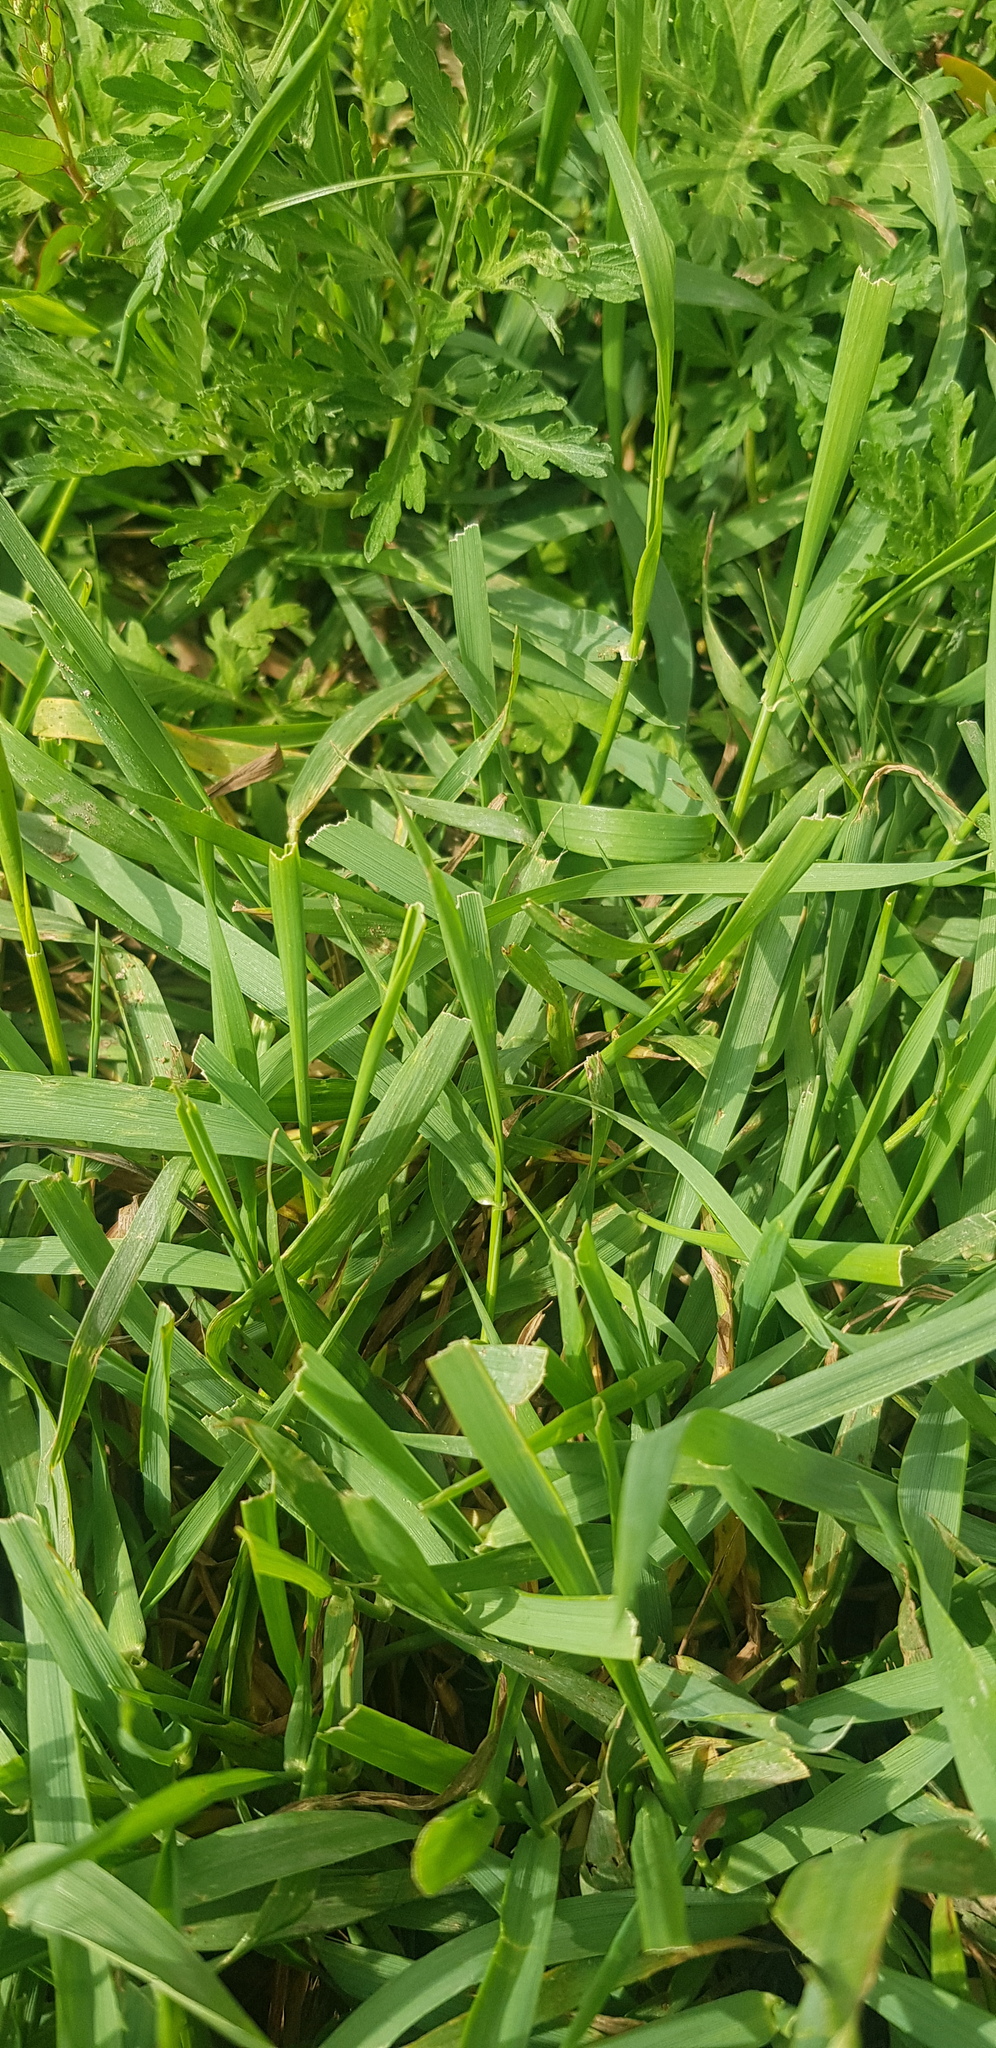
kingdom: Plantae
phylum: Tracheophyta
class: Liliopsida
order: Poales
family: Poaceae
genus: Elymus
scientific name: Elymus sibiricus
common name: Siberian wildrye
